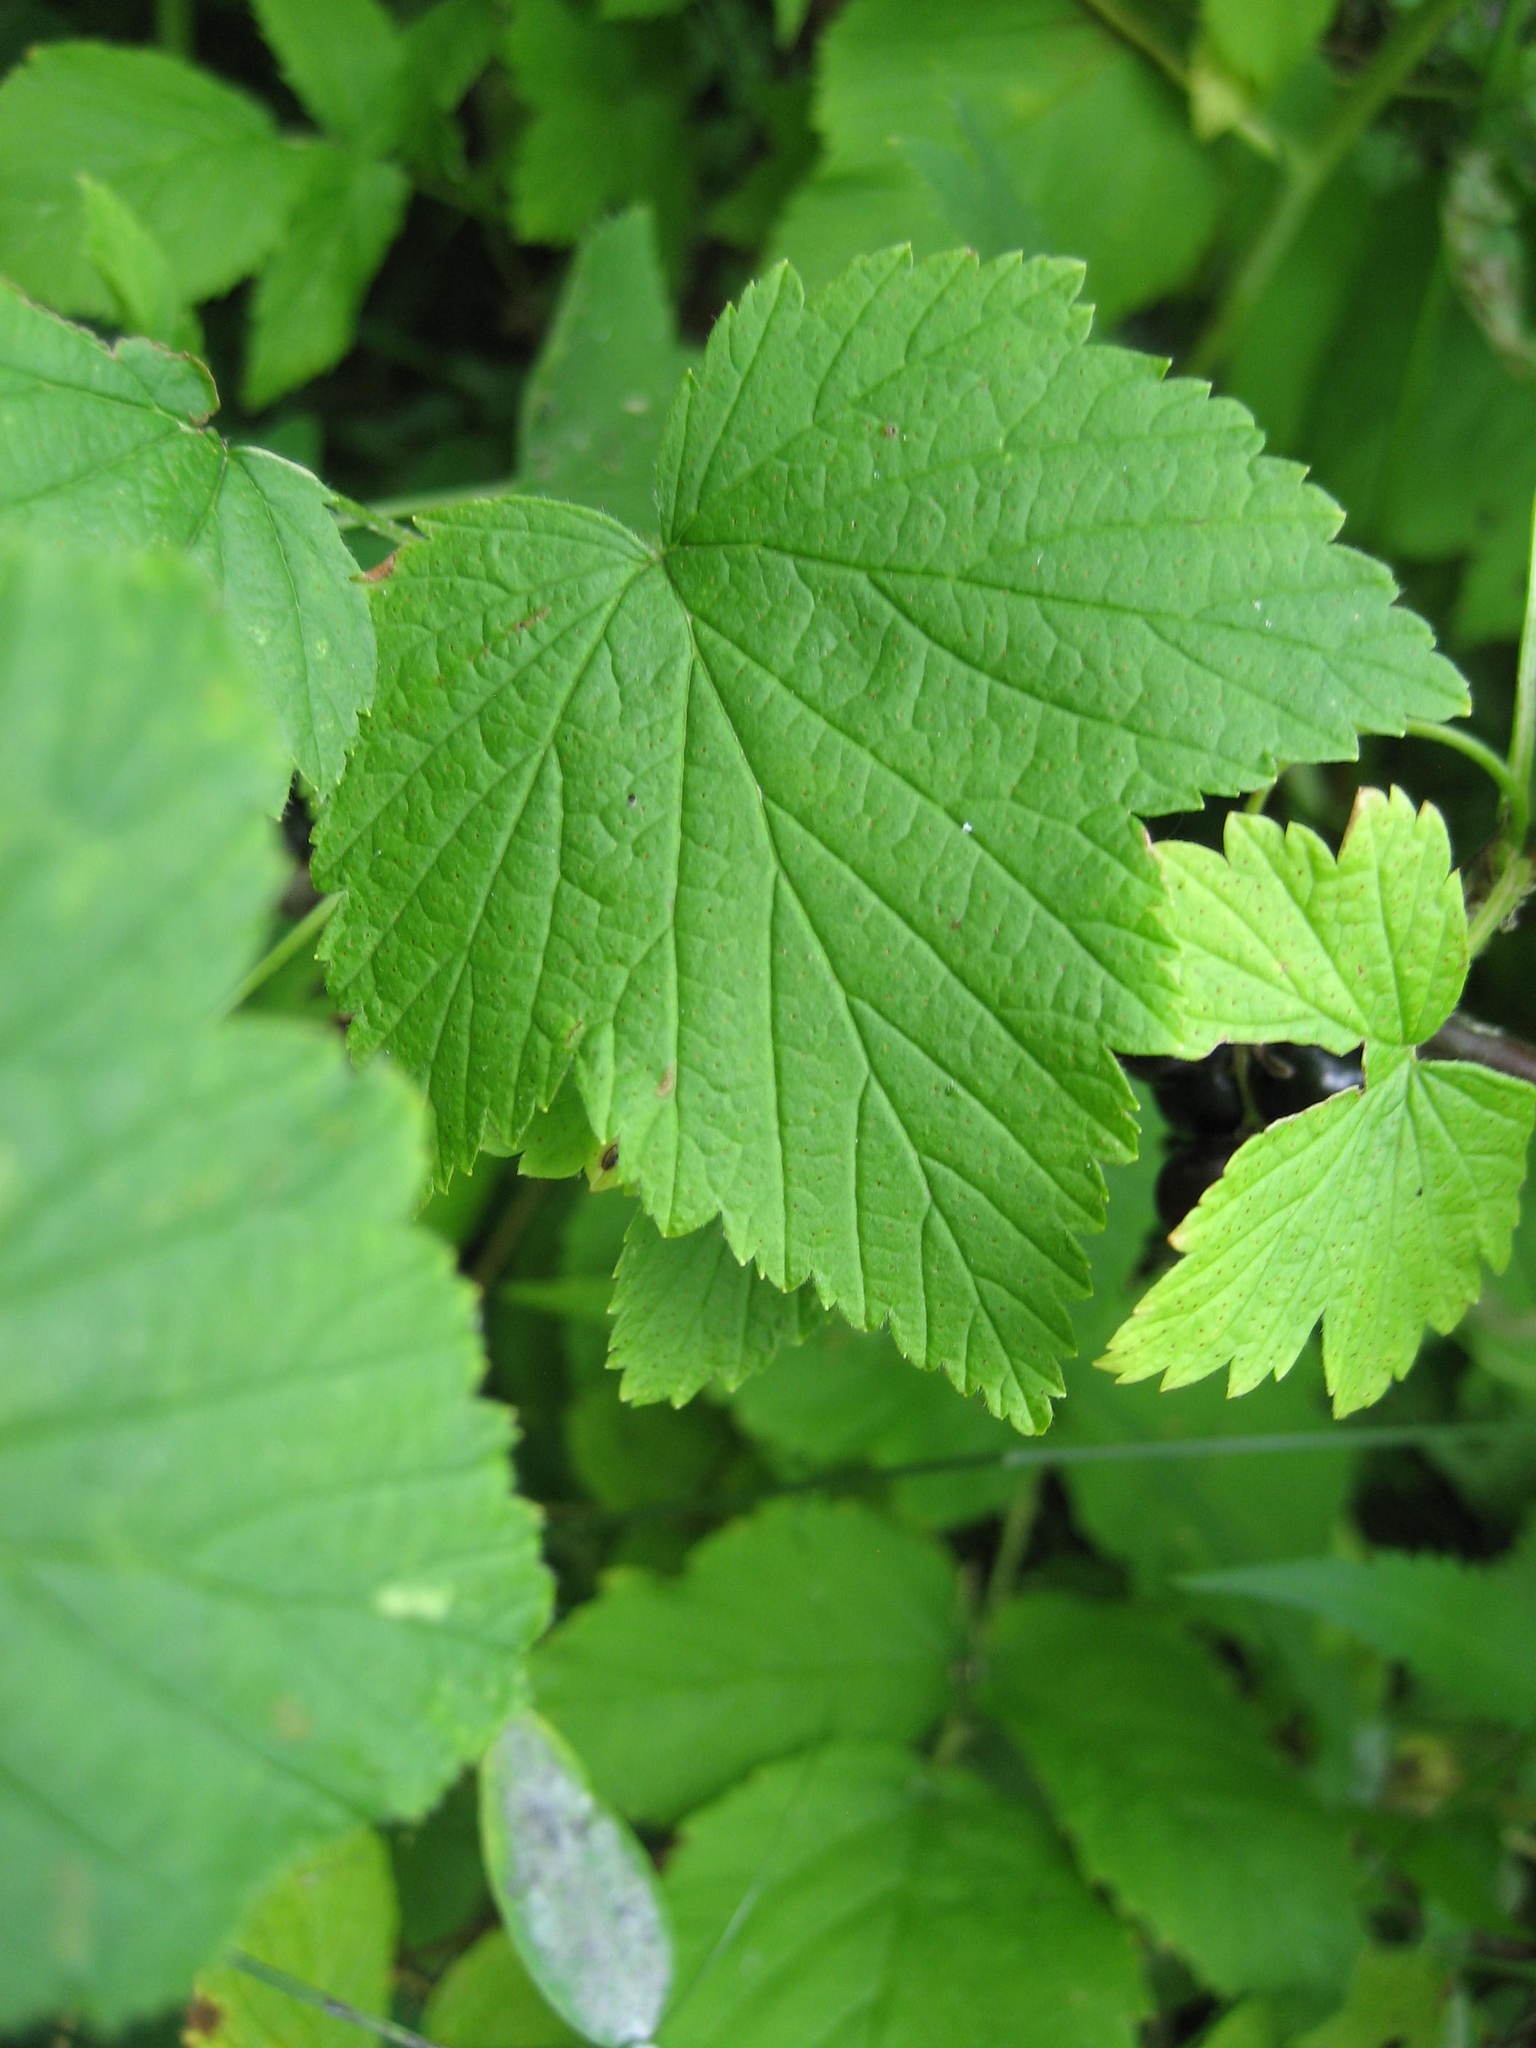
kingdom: Plantae
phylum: Tracheophyta
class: Magnoliopsida
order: Saxifragales
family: Grossulariaceae
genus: Ribes
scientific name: Ribes americanum
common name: American black currant
